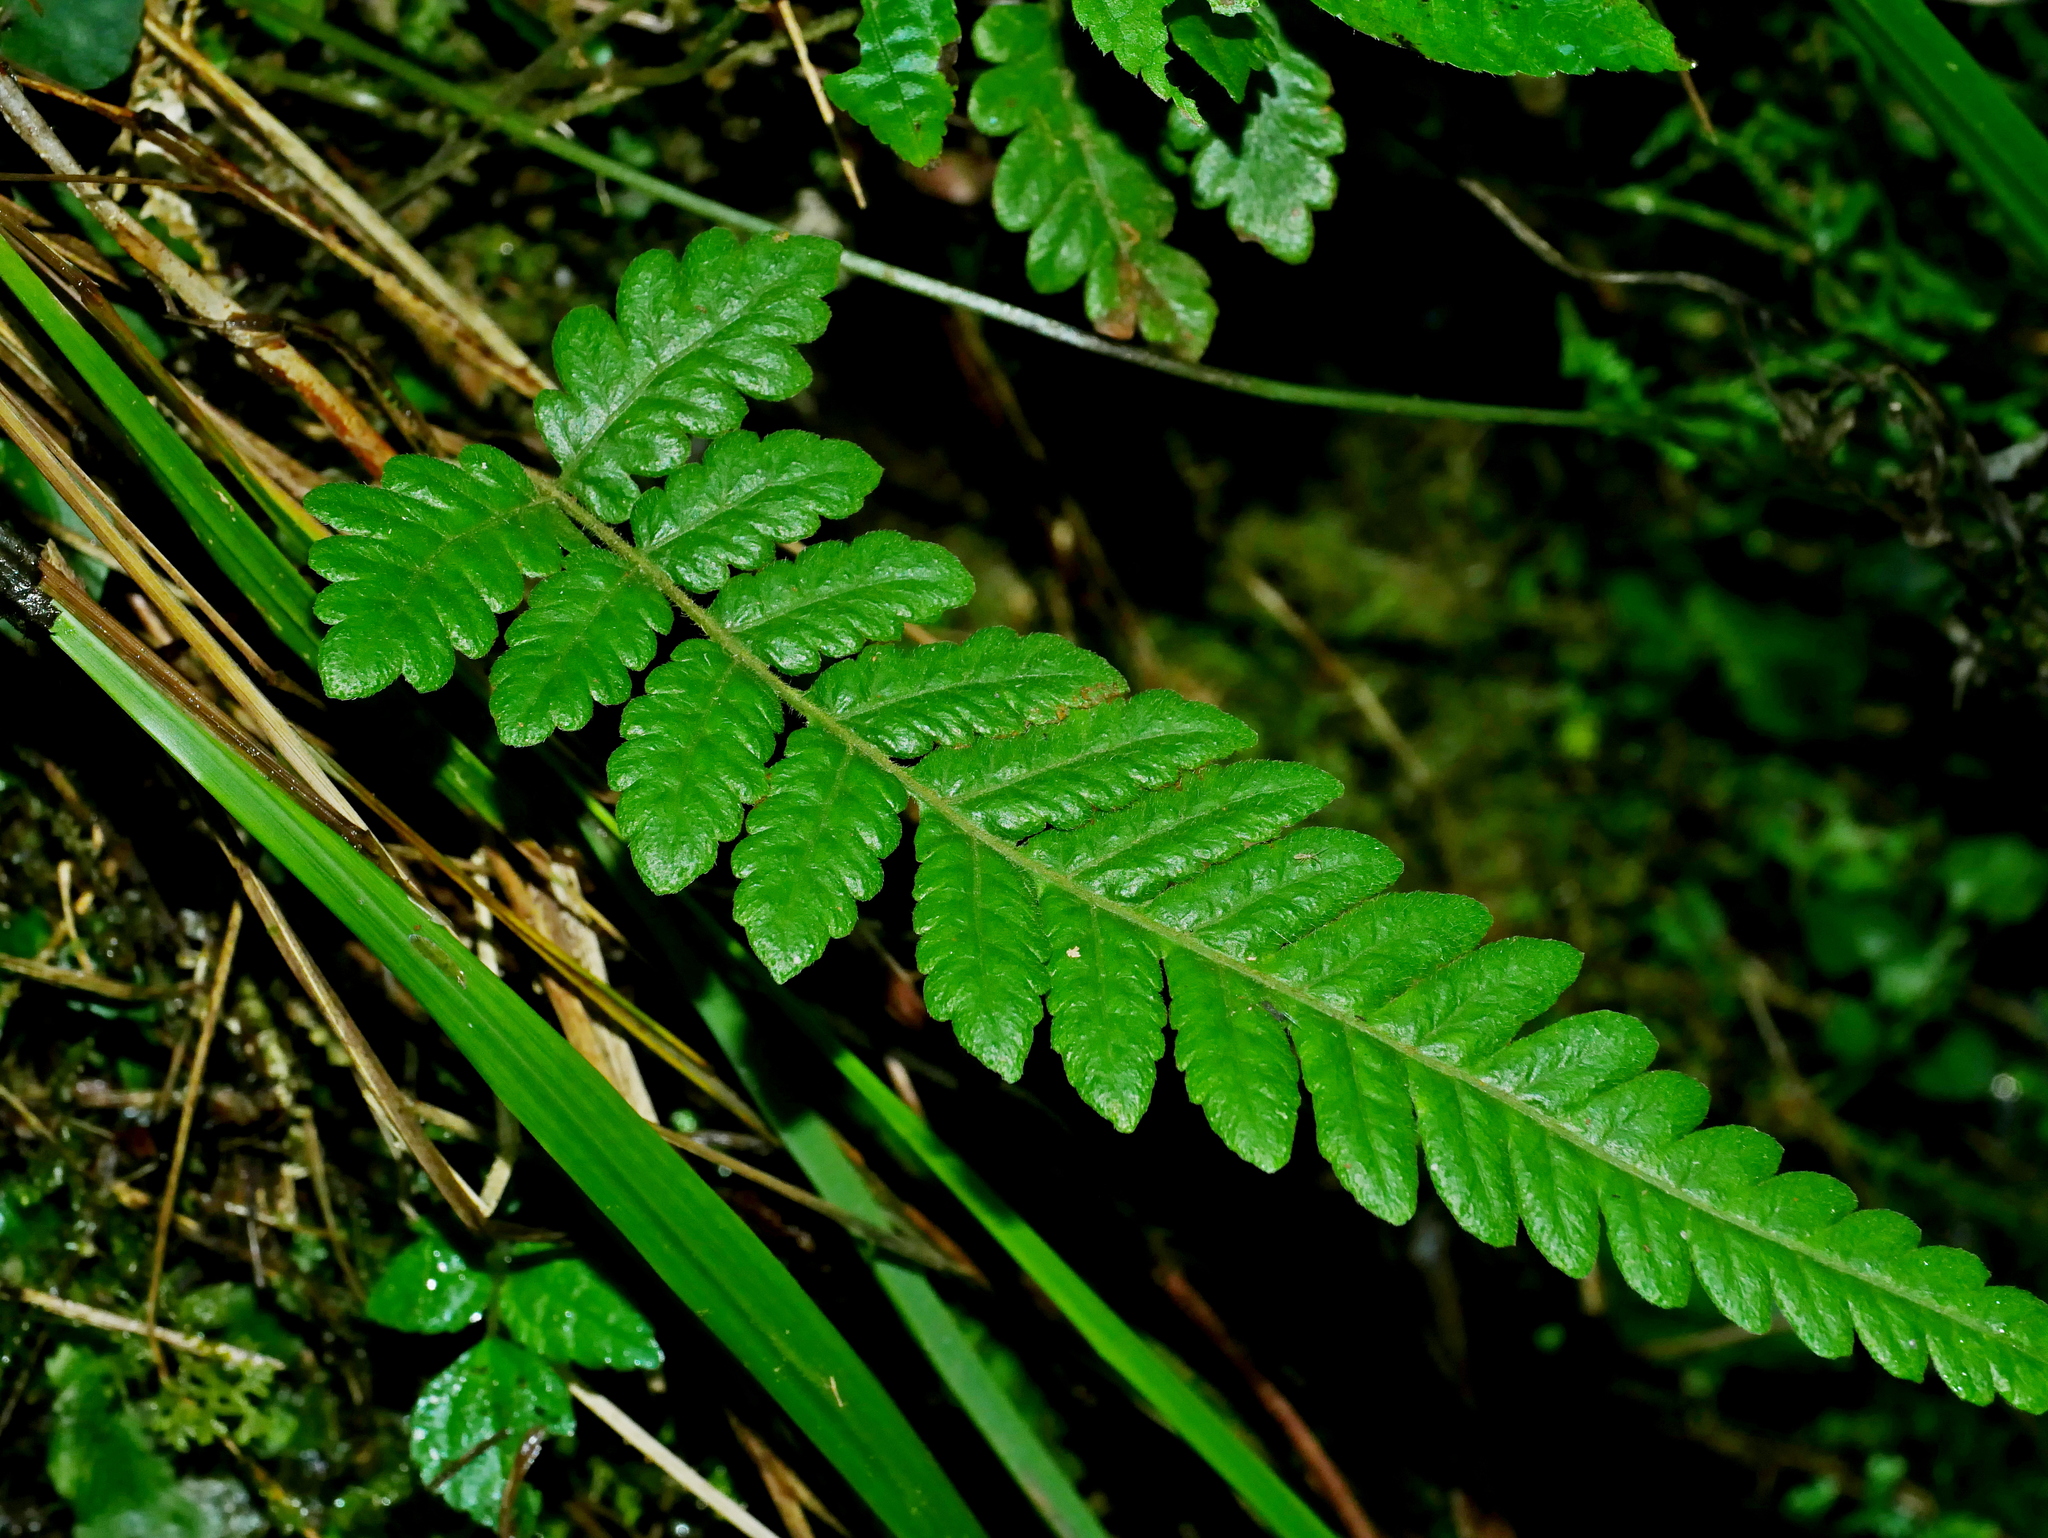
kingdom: Plantae
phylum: Tracheophyta
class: Polypodiopsida
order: Polypodiales
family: Thelypteridaceae
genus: Leptogramma
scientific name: Leptogramma tottoides
